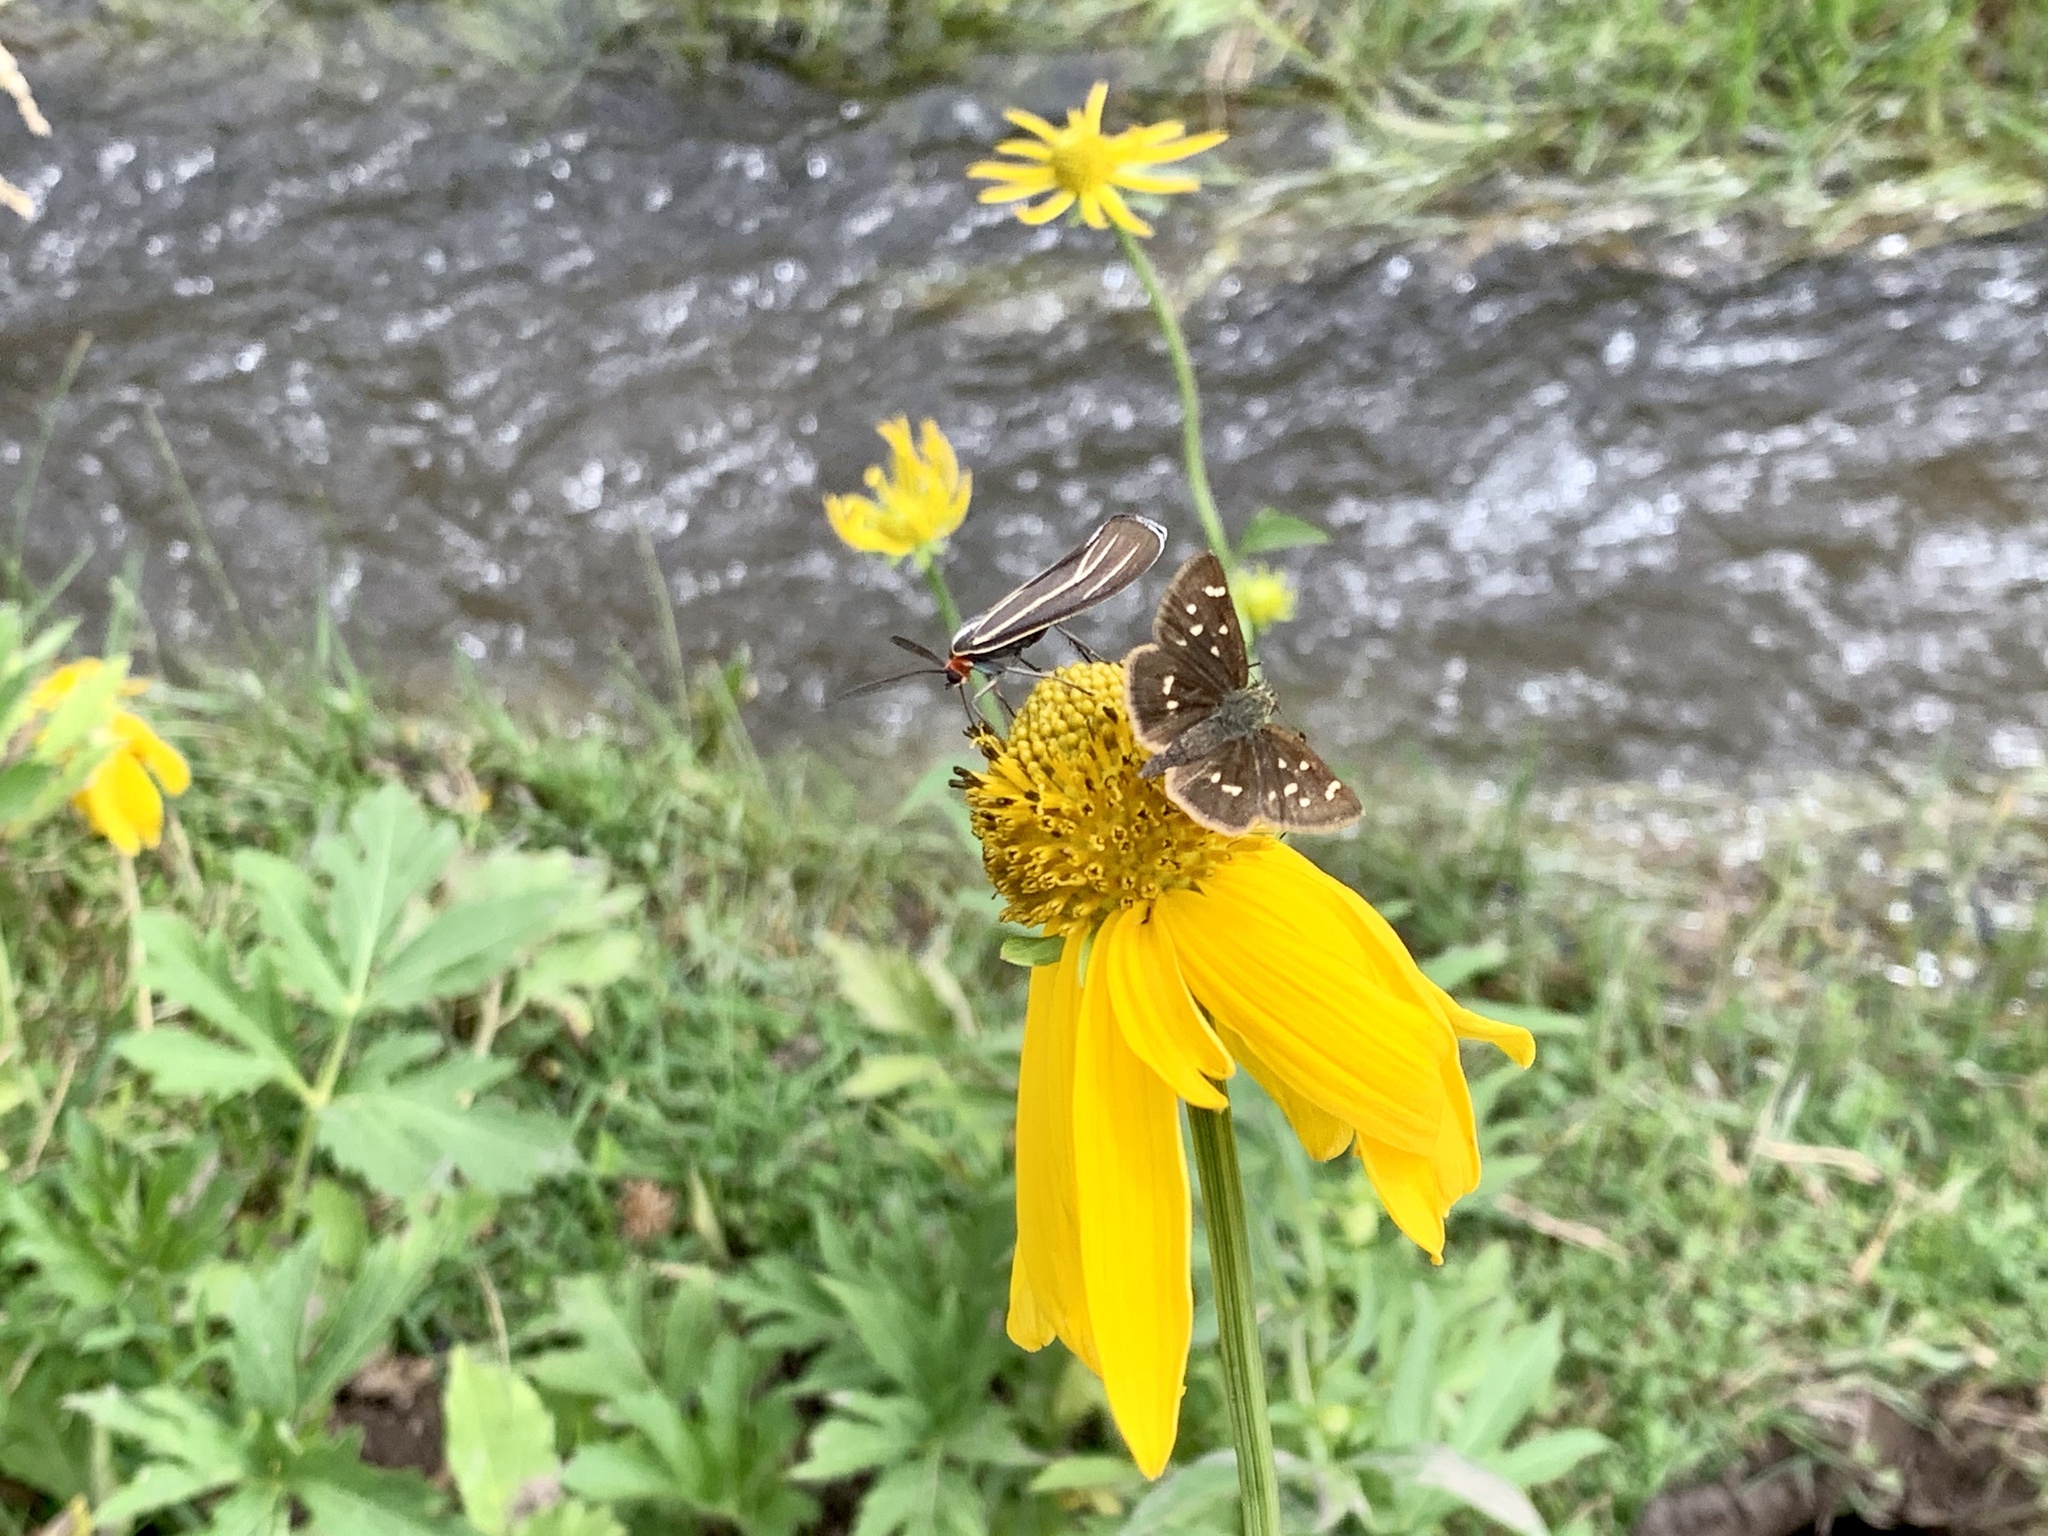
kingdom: Animalia
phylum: Arthropoda
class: Insecta
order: Lepidoptera
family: Hesperiidae
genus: Piruna
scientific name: Piruna polingii
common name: Four-spotted skipperling
